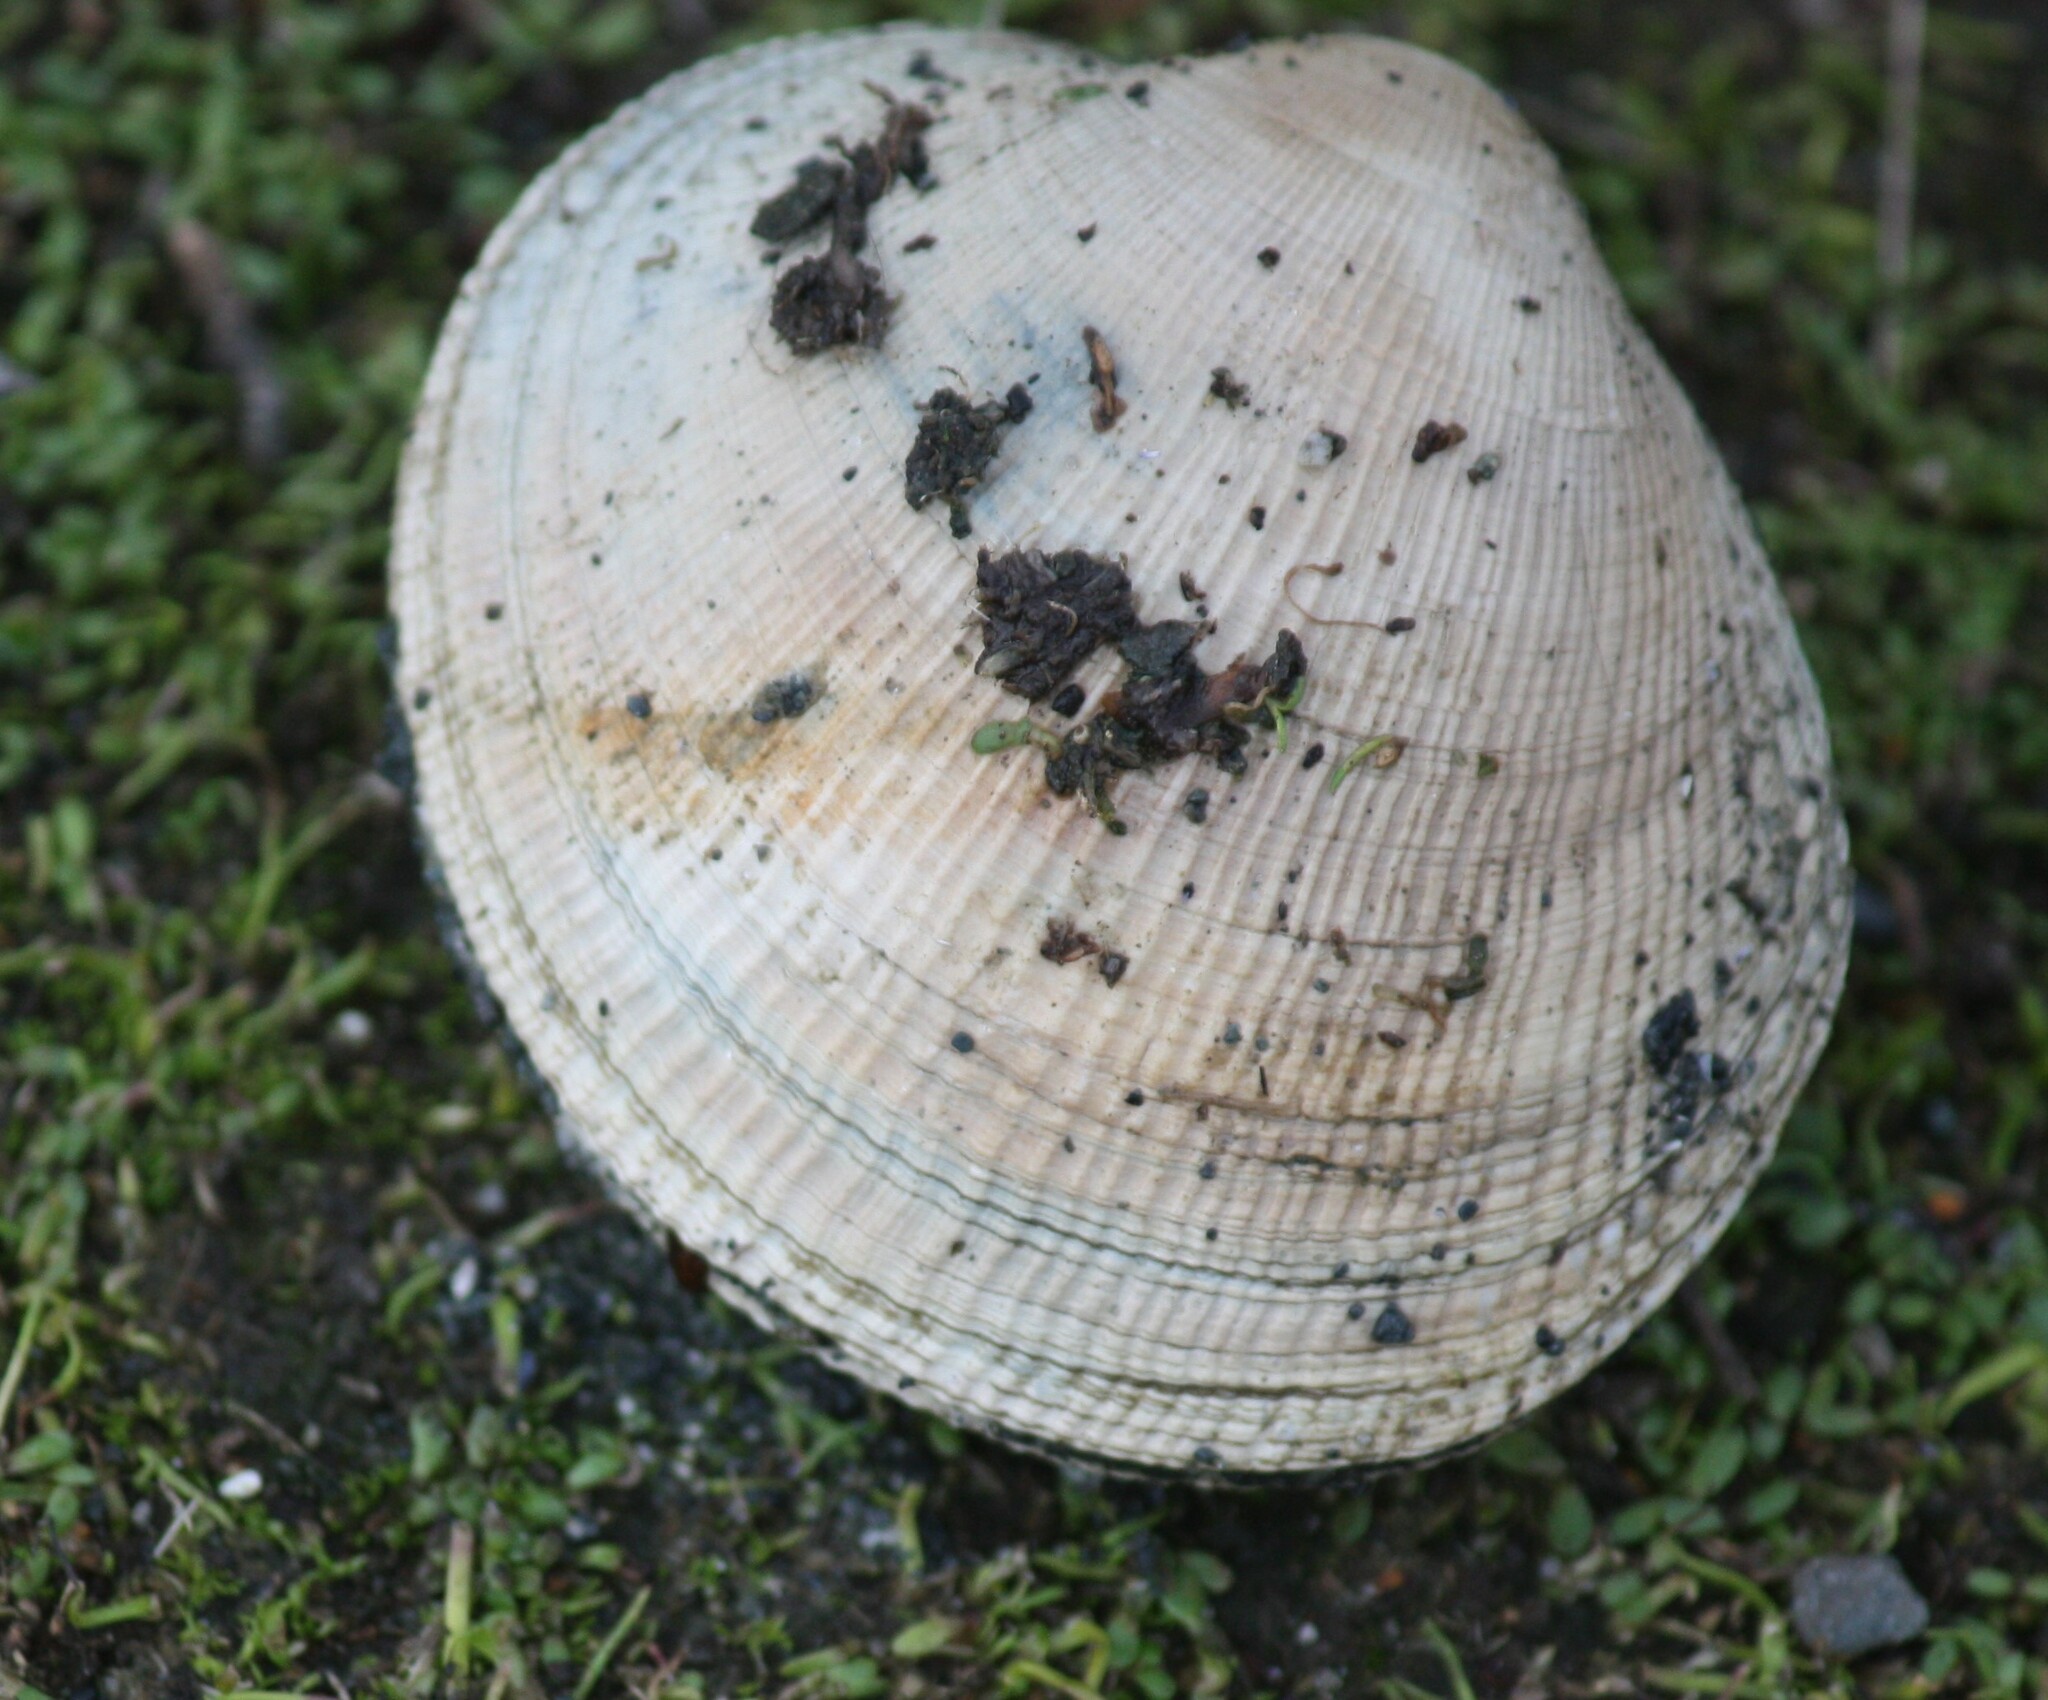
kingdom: Animalia
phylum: Mollusca
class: Bivalvia
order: Venerida
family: Veneridae
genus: Leukoma
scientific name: Leukoma staminea
